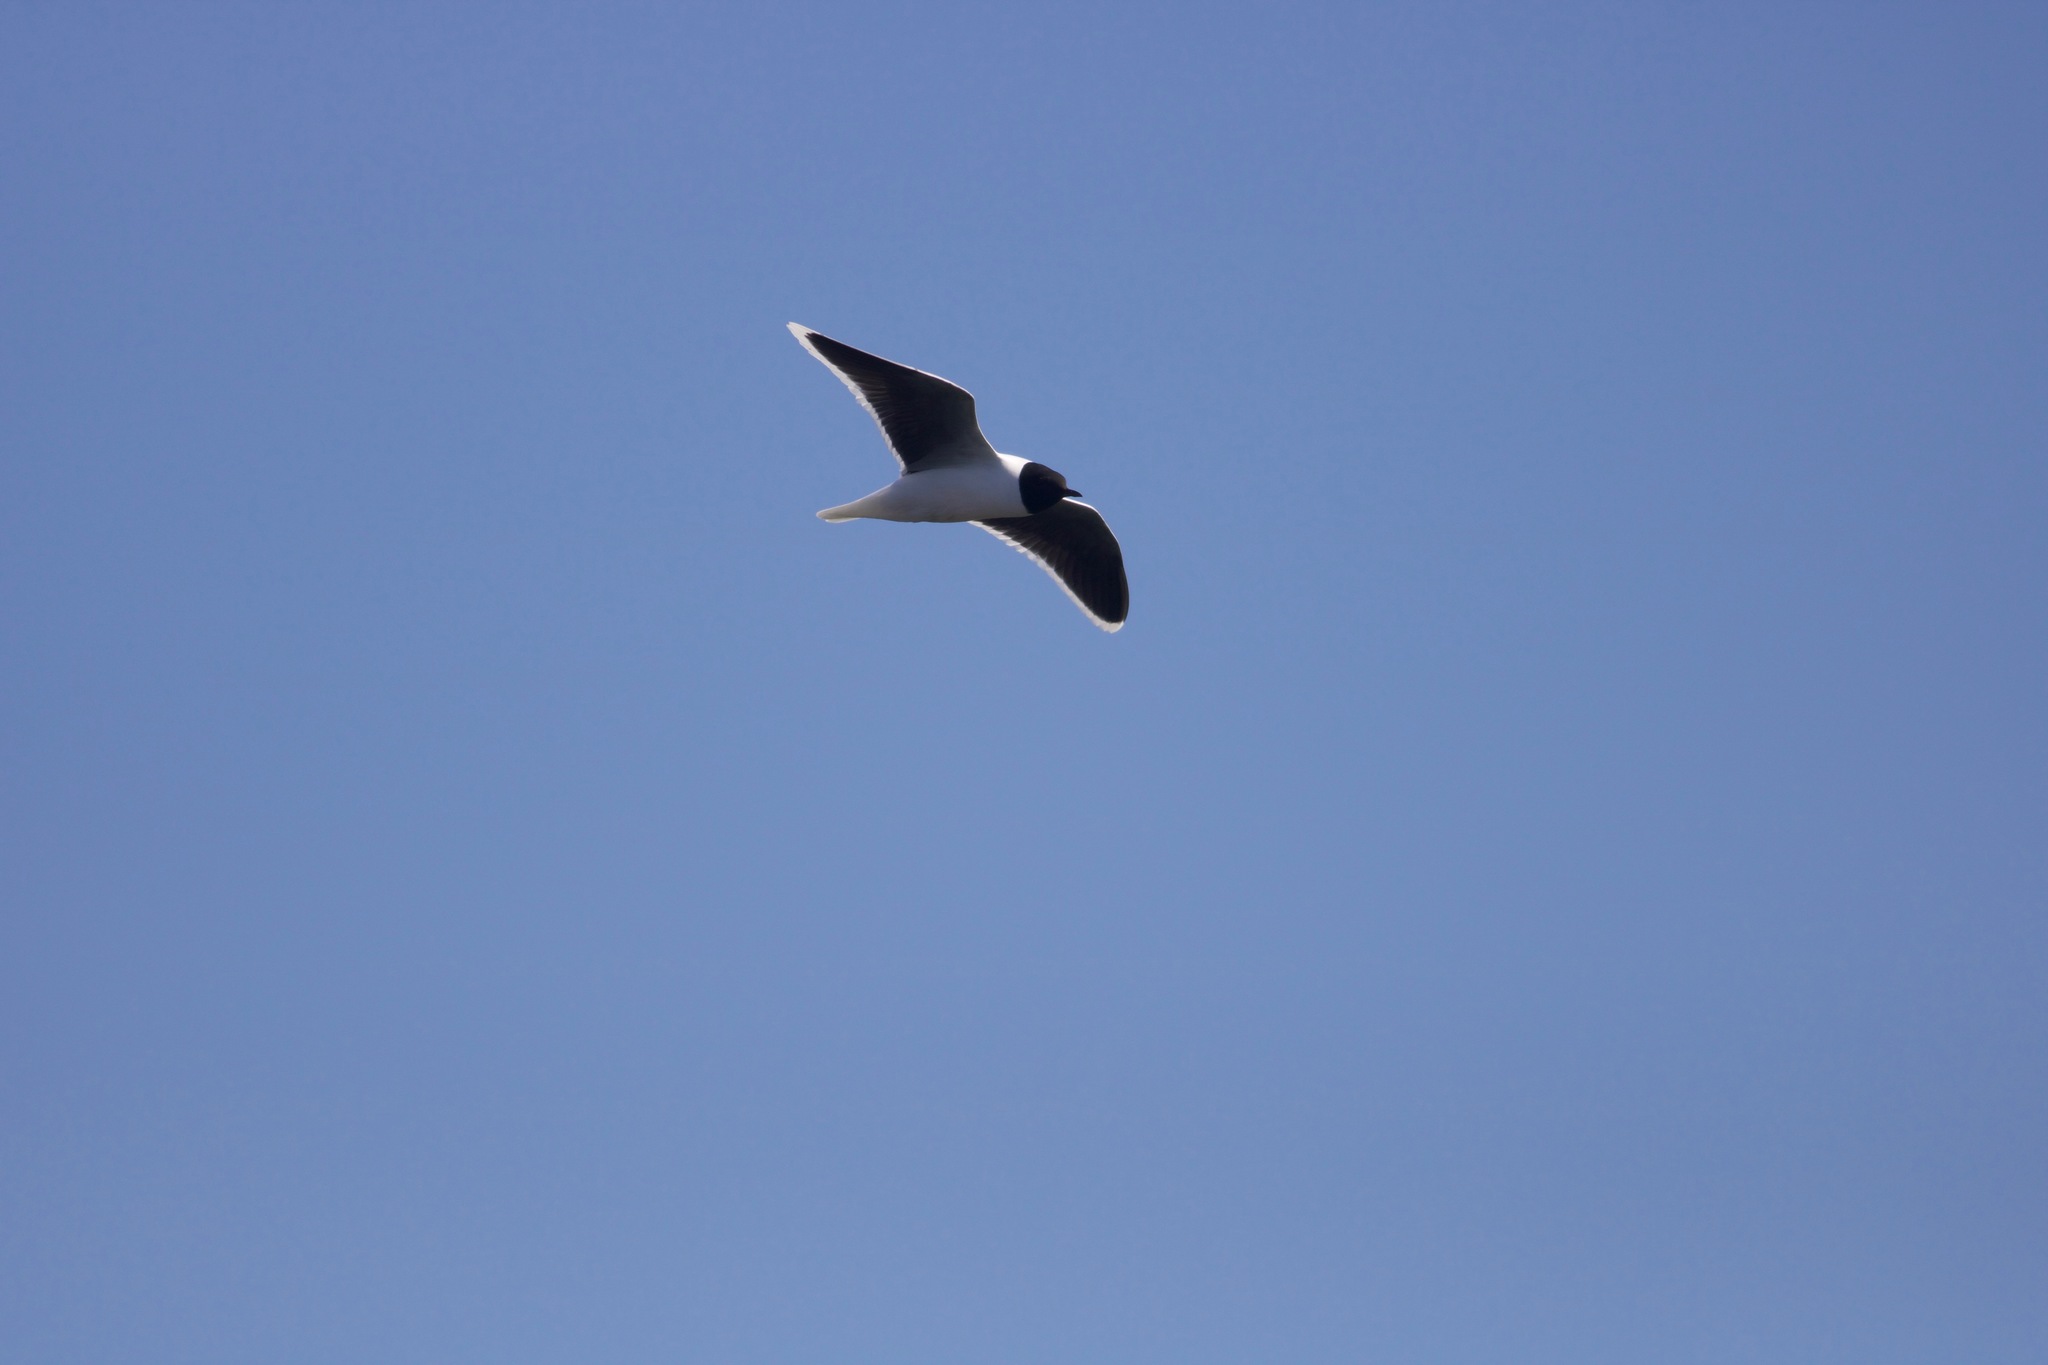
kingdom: Animalia
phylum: Chordata
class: Aves
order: Charadriiformes
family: Laridae
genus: Hydrocoloeus
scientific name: Hydrocoloeus minutus
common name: Little gull
